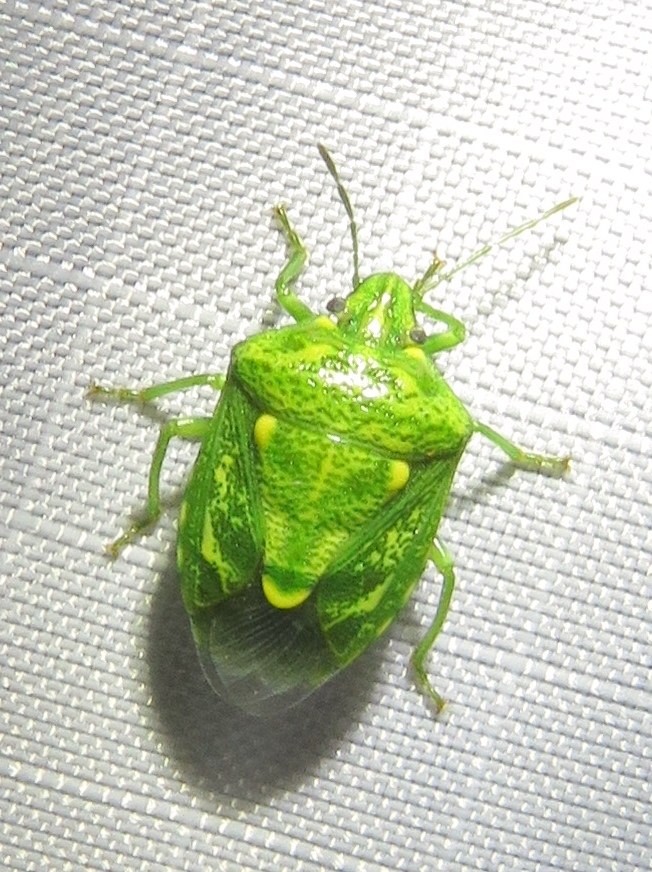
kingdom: Animalia
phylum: Arthropoda
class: Insecta
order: Hemiptera
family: Pentatomidae
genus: Banasa
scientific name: Banasa euchlora
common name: Cedar berry bug
